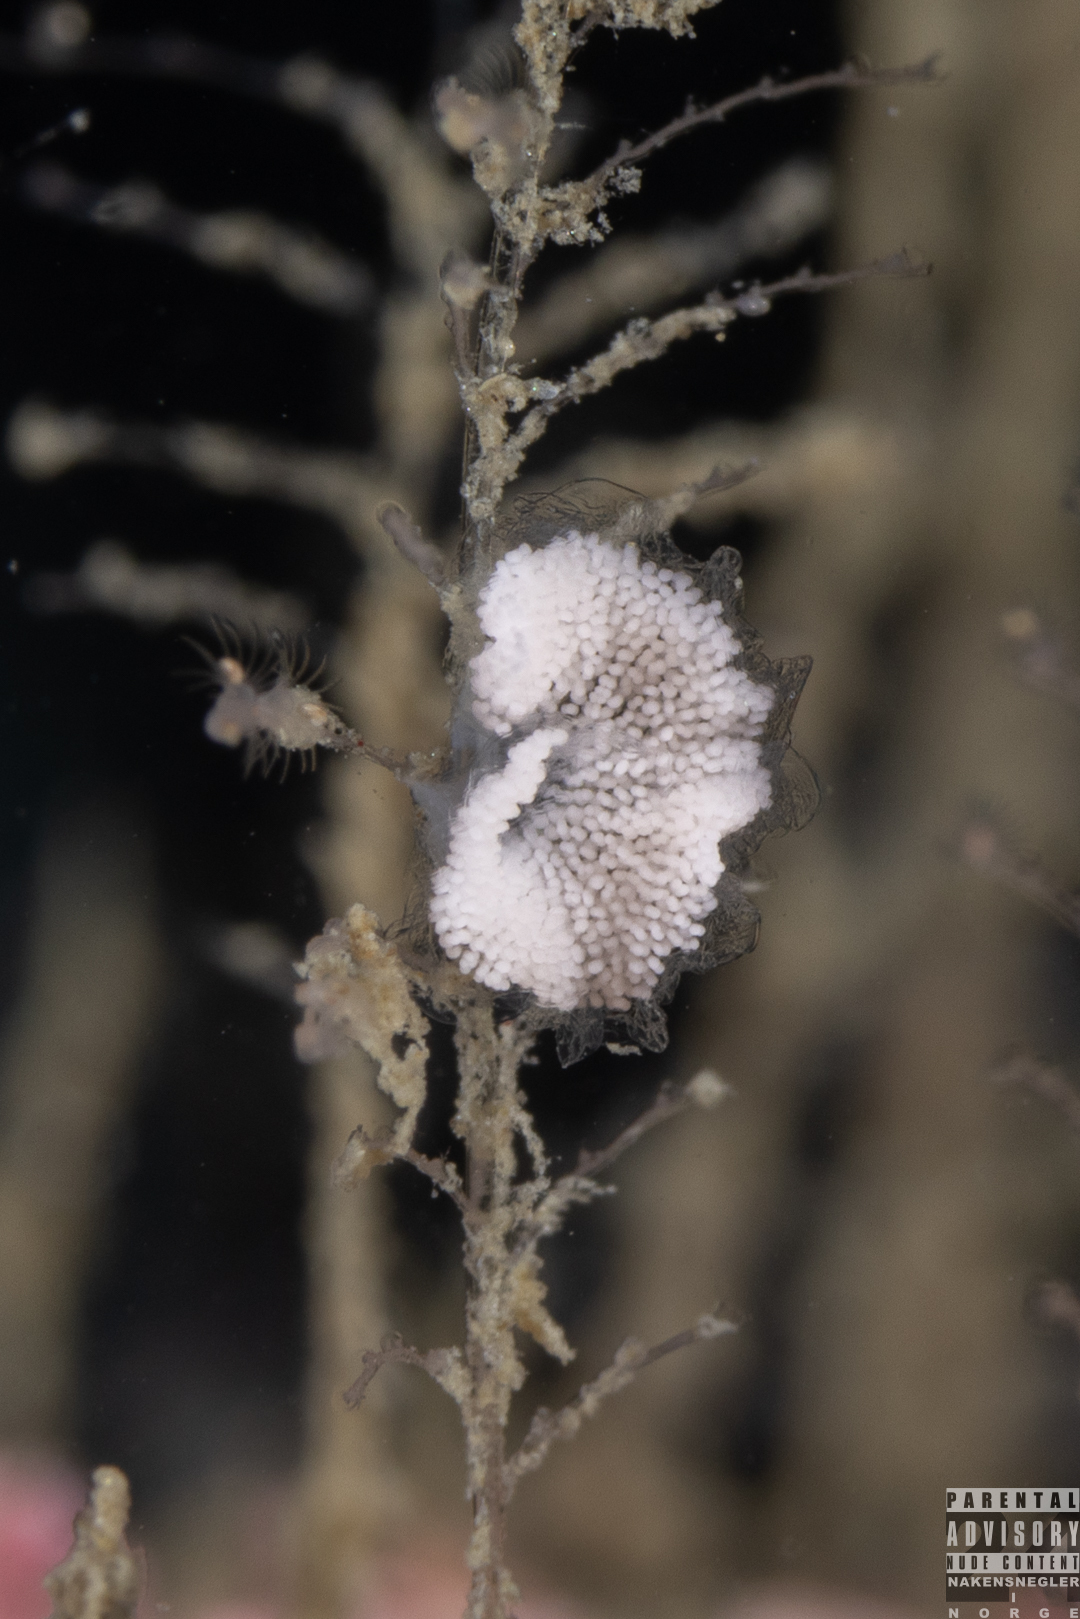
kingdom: Animalia
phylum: Mollusca
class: Gastropoda
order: Nudibranchia
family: Eubranchidae
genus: Eubranchus
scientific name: Eubranchus vittatus
